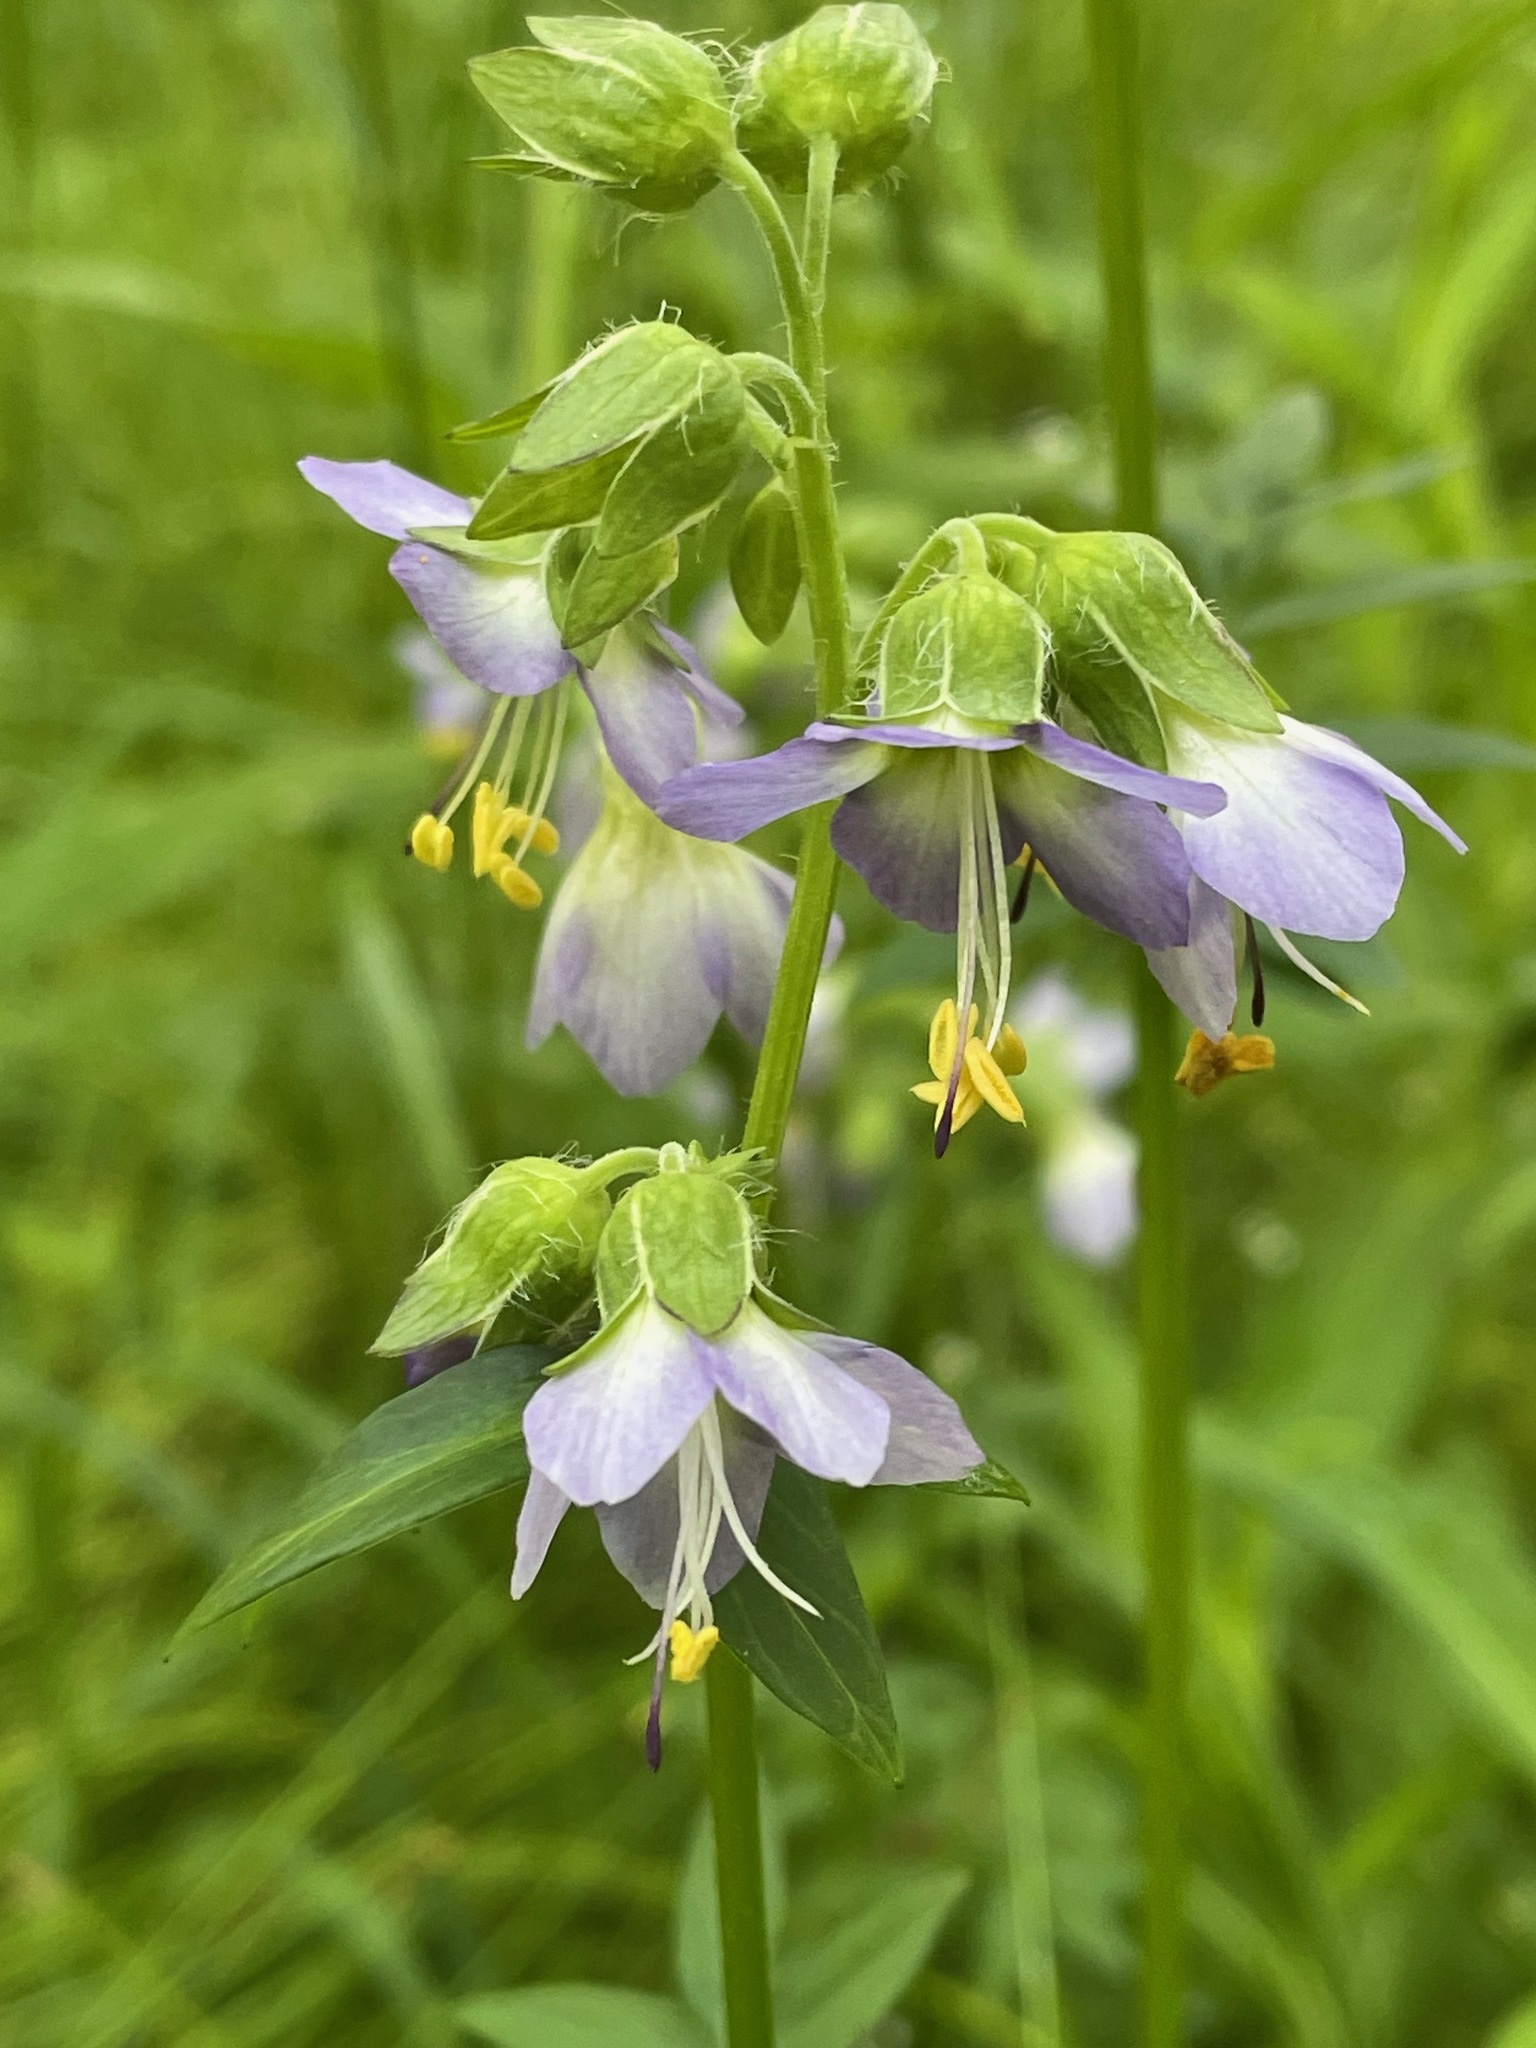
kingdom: Plantae
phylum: Tracheophyta
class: Magnoliopsida
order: Ericales
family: Polemoniaceae
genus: Polemonium
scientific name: Polemonium vanbruntiae
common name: Bog jacob's-ladder
